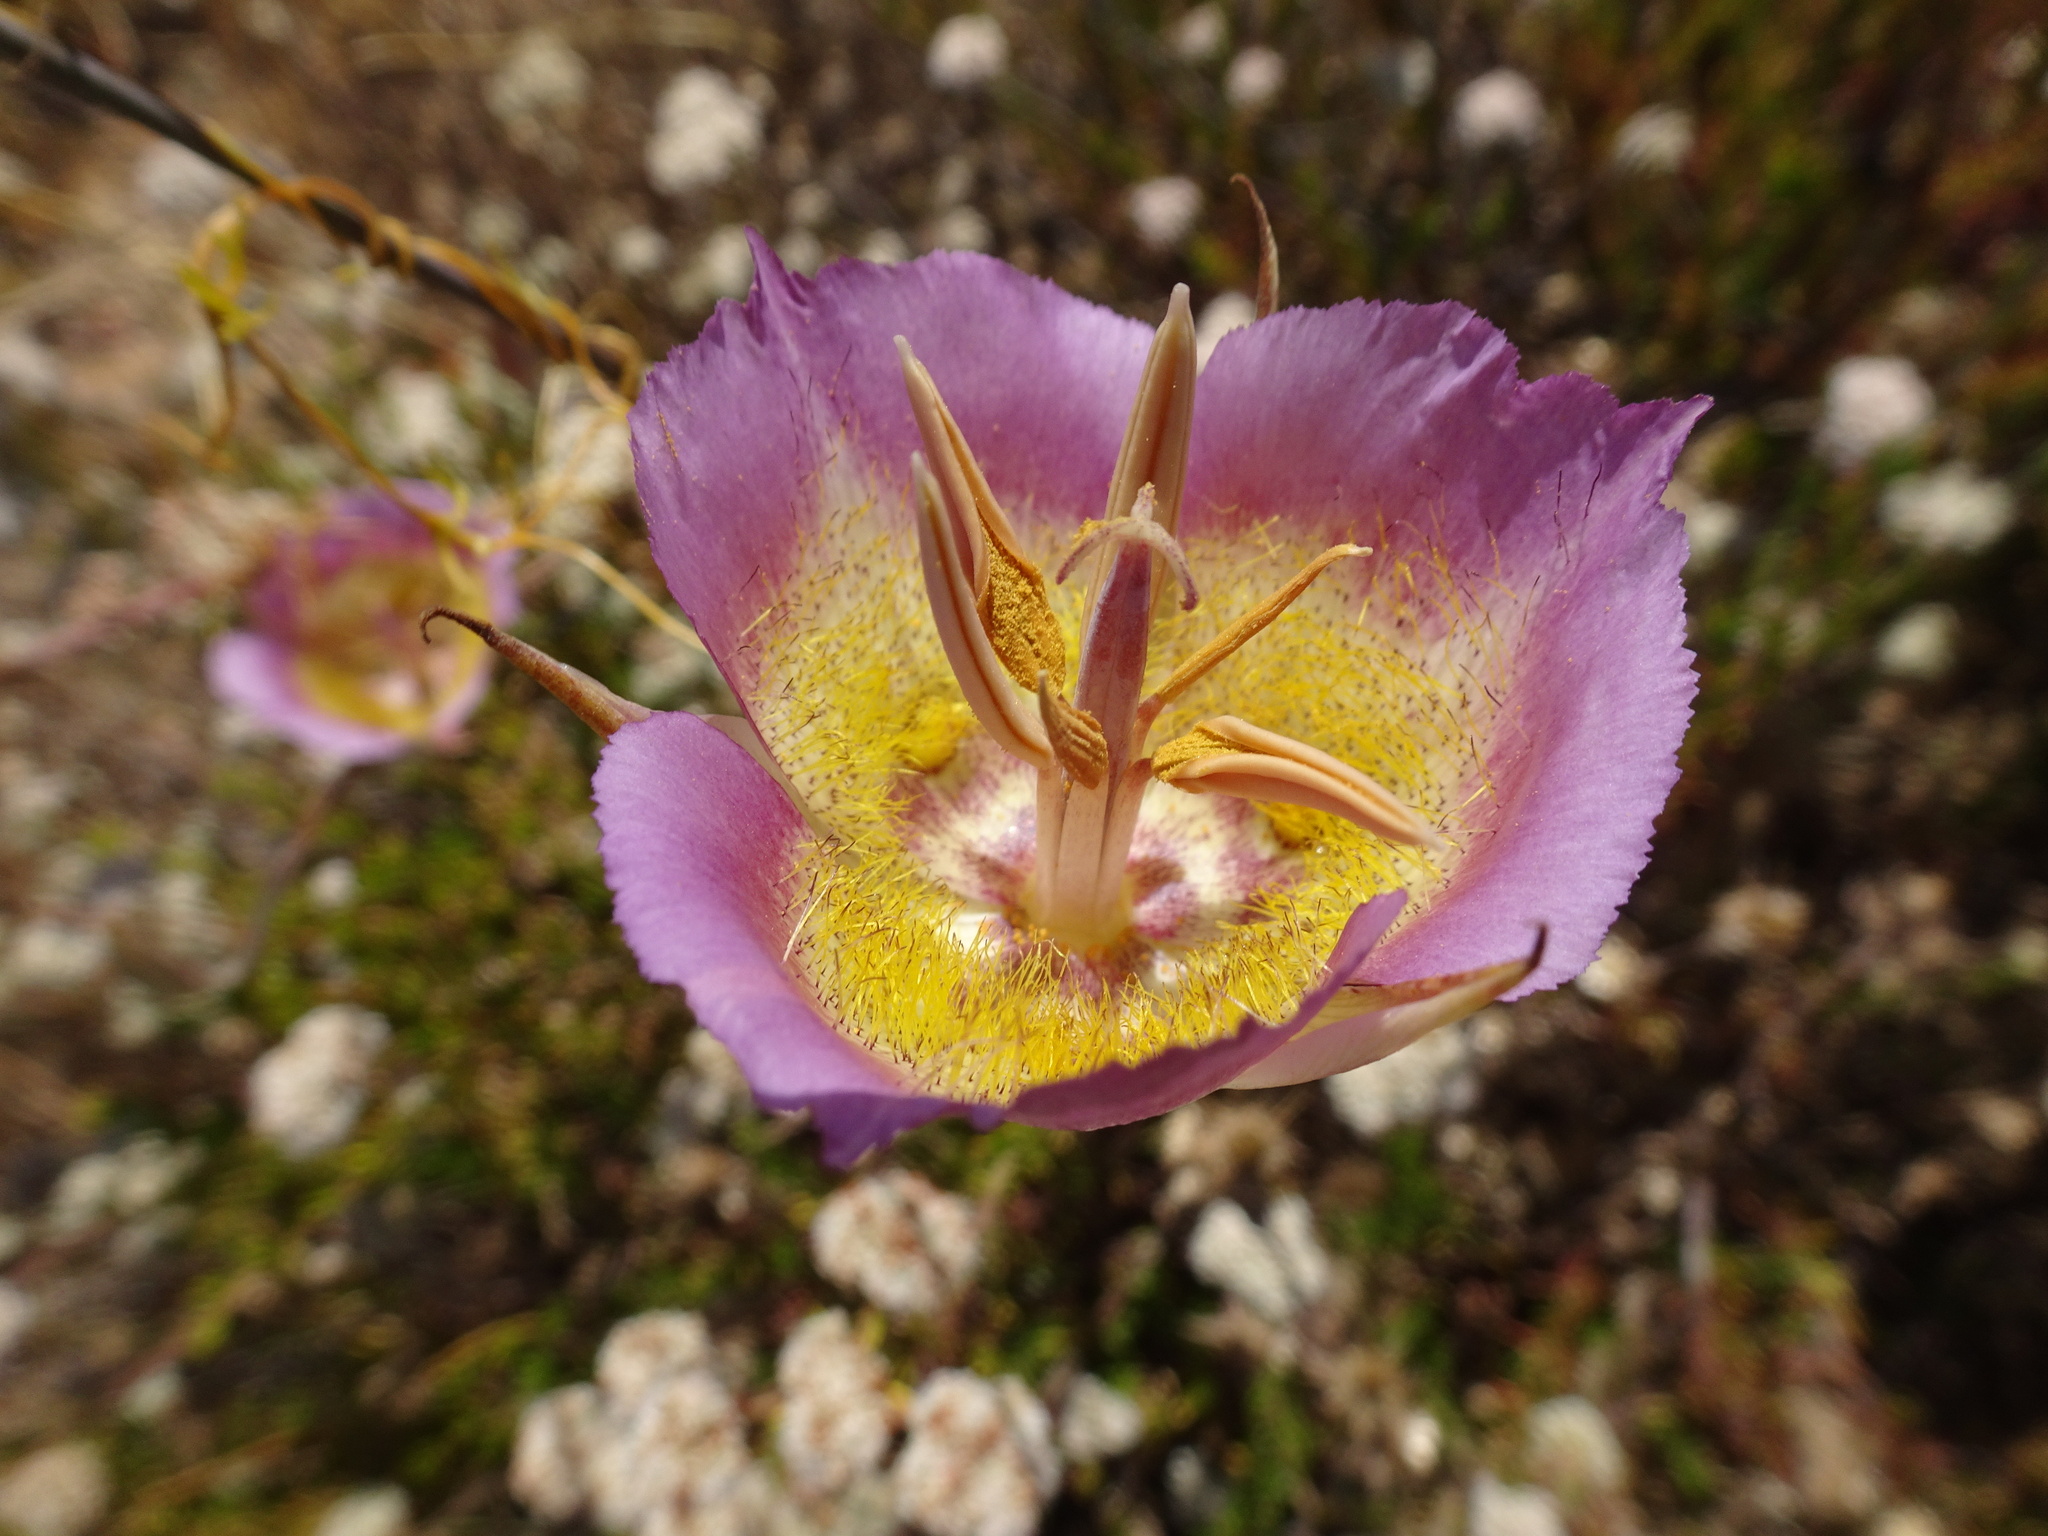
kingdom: Plantae
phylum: Tracheophyta
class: Liliopsida
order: Liliales
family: Liliaceae
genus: Calochortus
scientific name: Calochortus plummerae
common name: Plummer's mariposa-lily
